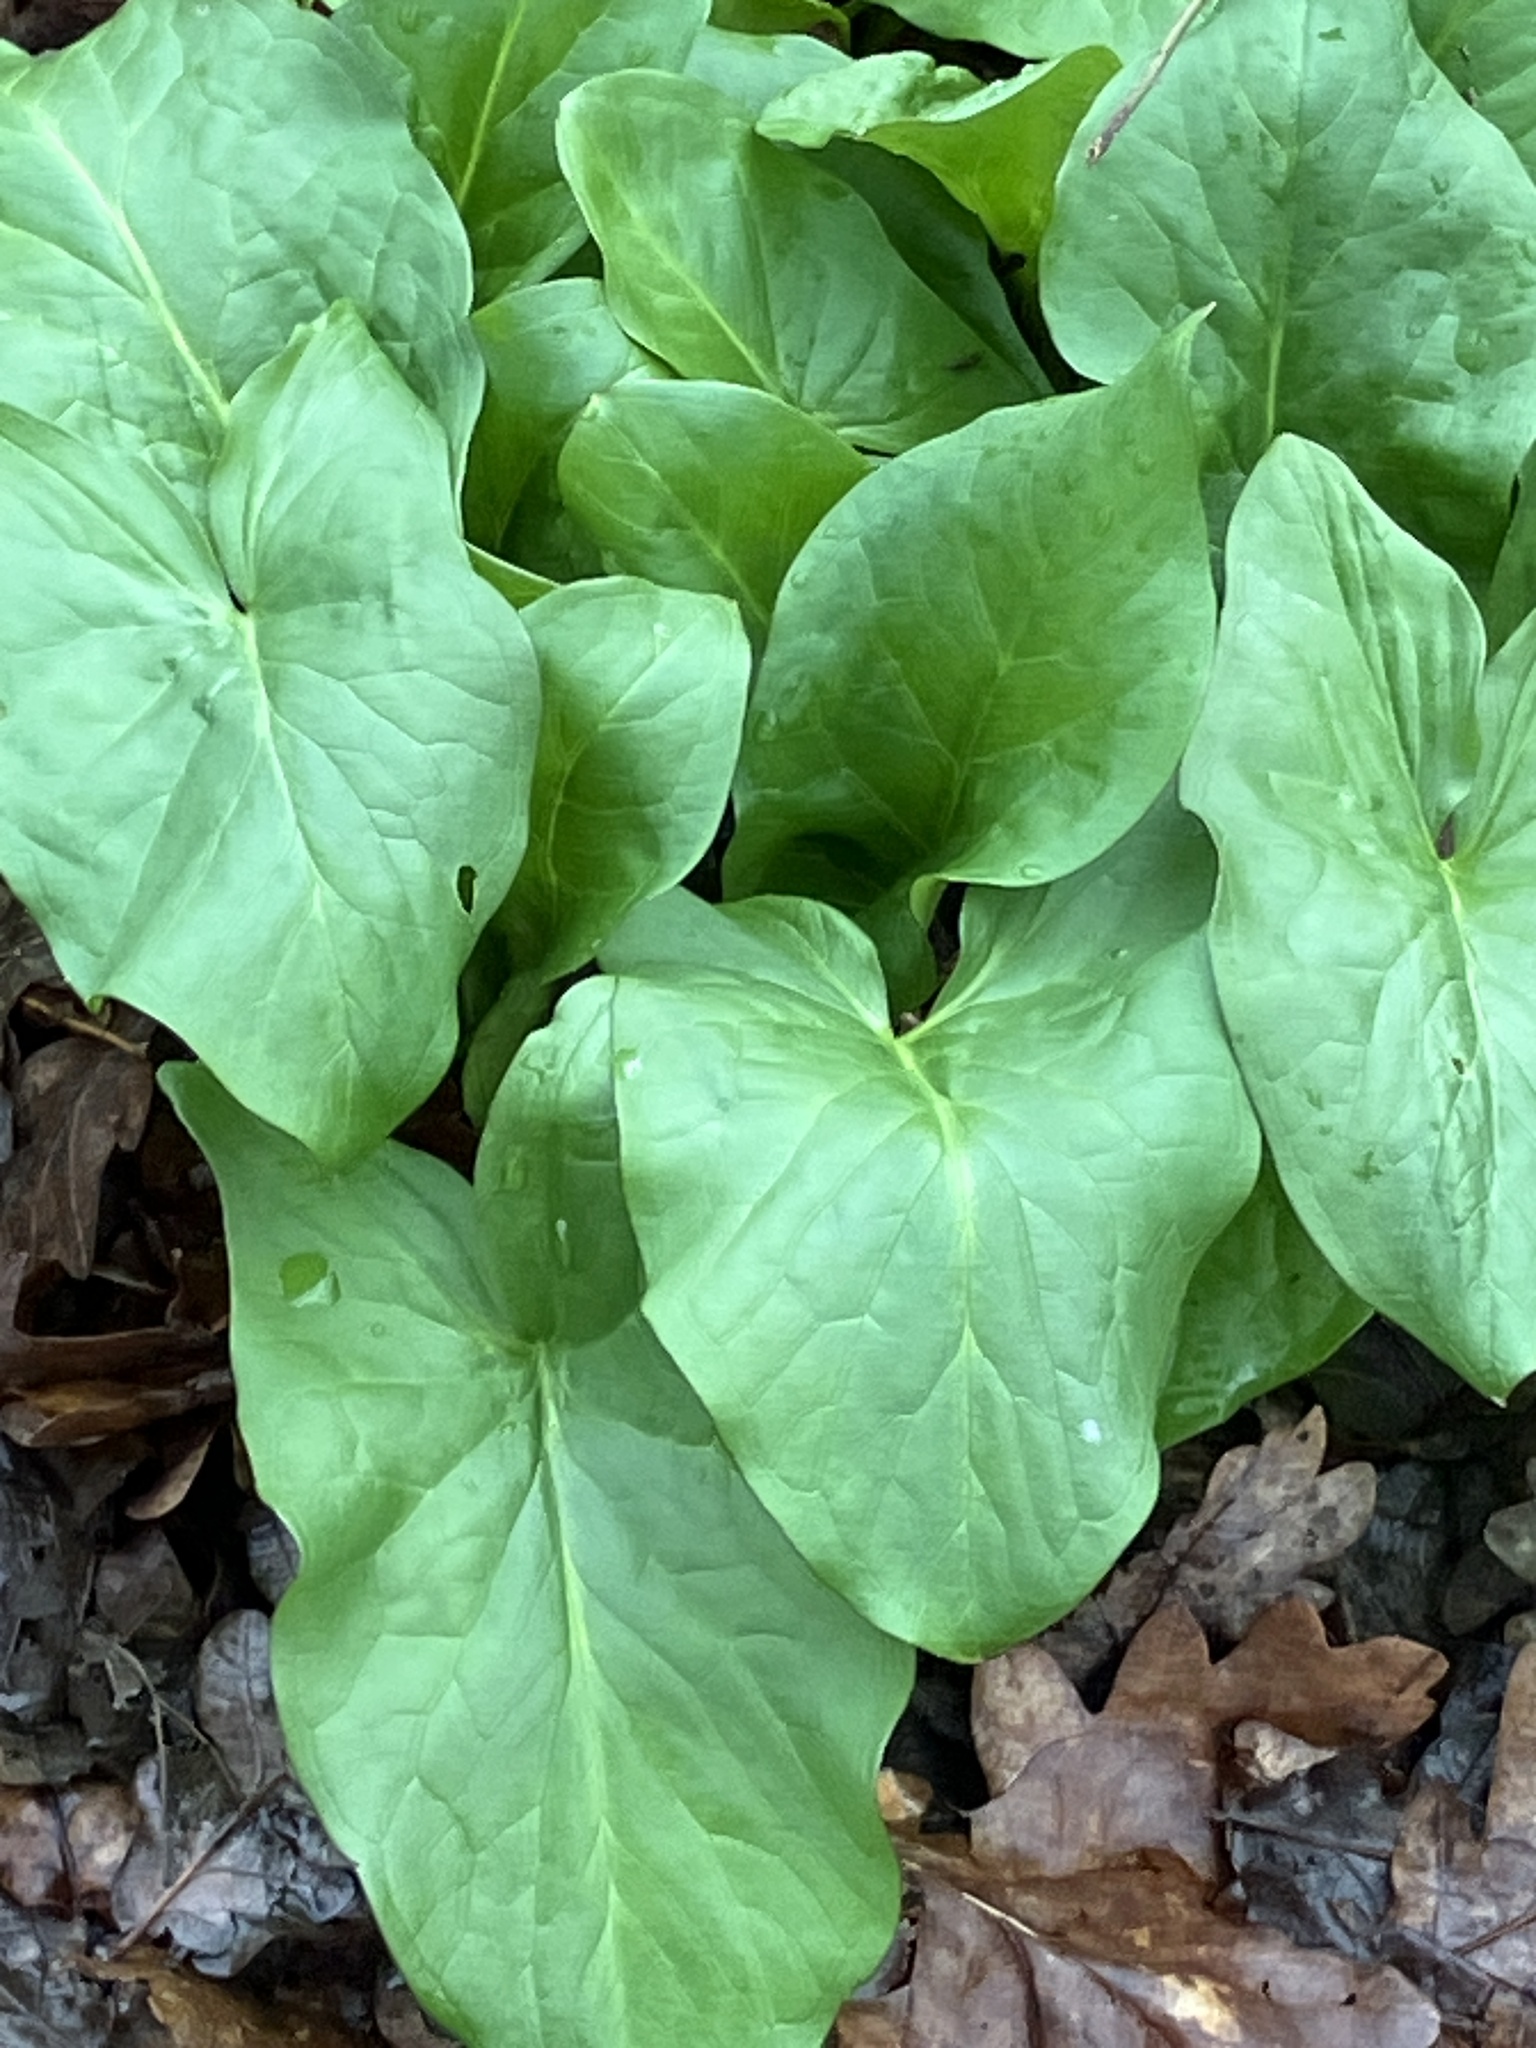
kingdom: Plantae
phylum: Tracheophyta
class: Liliopsida
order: Alismatales
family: Araceae
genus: Arum
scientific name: Arum maculatum
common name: Lords-and-ladies
